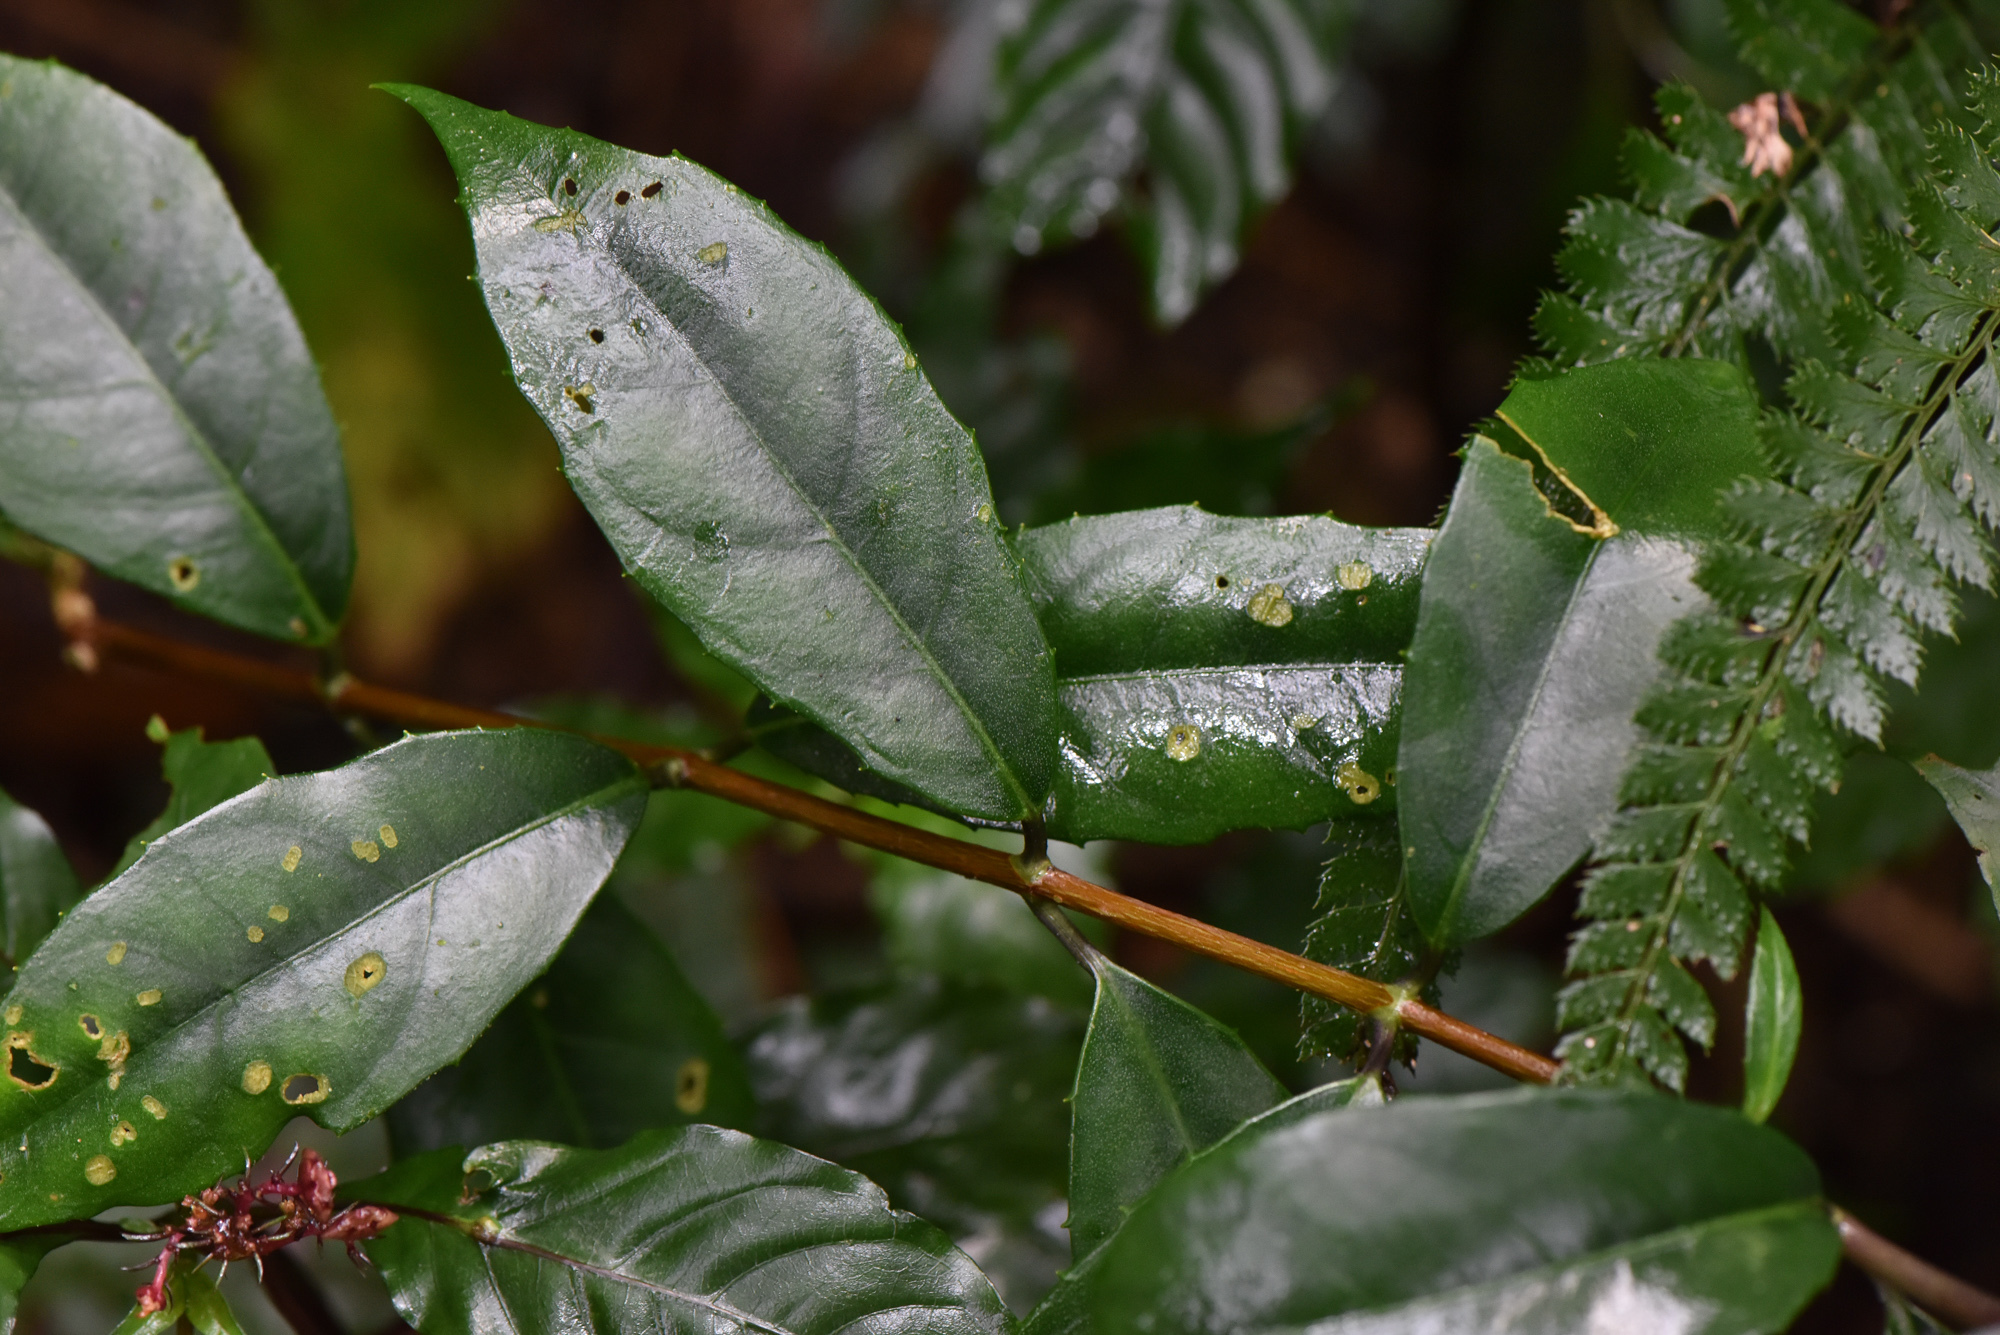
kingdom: Plantae
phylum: Tracheophyta
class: Magnoliopsida
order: Cornales
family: Hydrangeaceae
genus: Hydrangea
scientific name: Hydrangea chinensis
